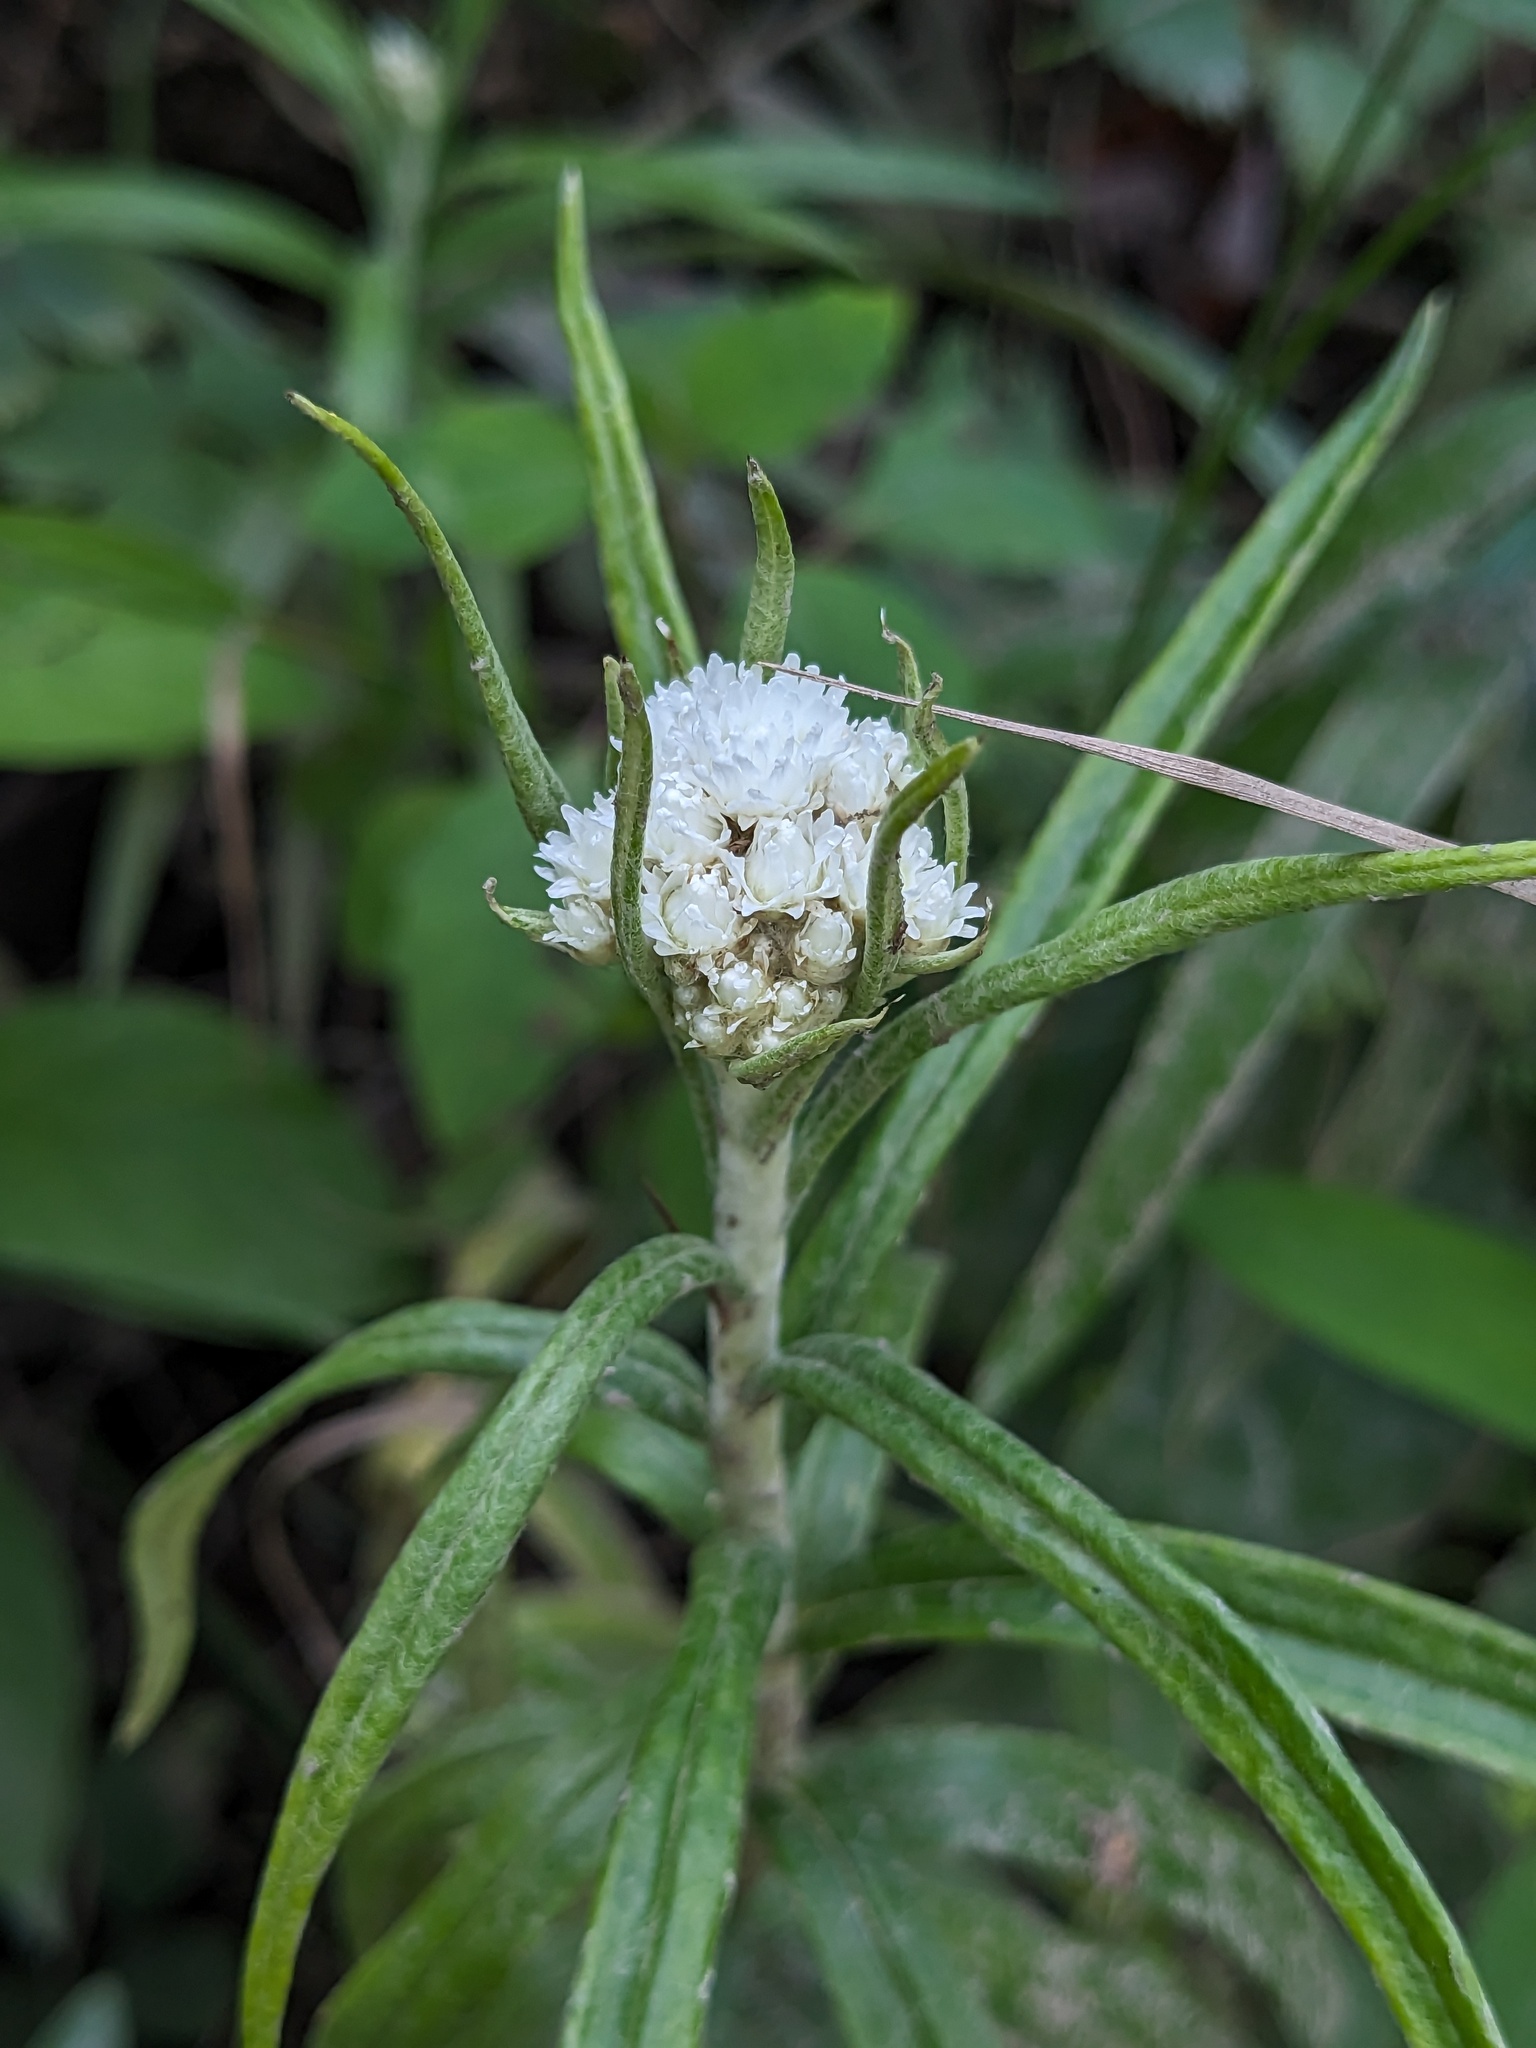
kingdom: Plantae
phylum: Tracheophyta
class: Magnoliopsida
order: Asterales
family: Asteraceae
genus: Anaphalis
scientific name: Anaphalis margaritacea
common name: Pearly everlasting
